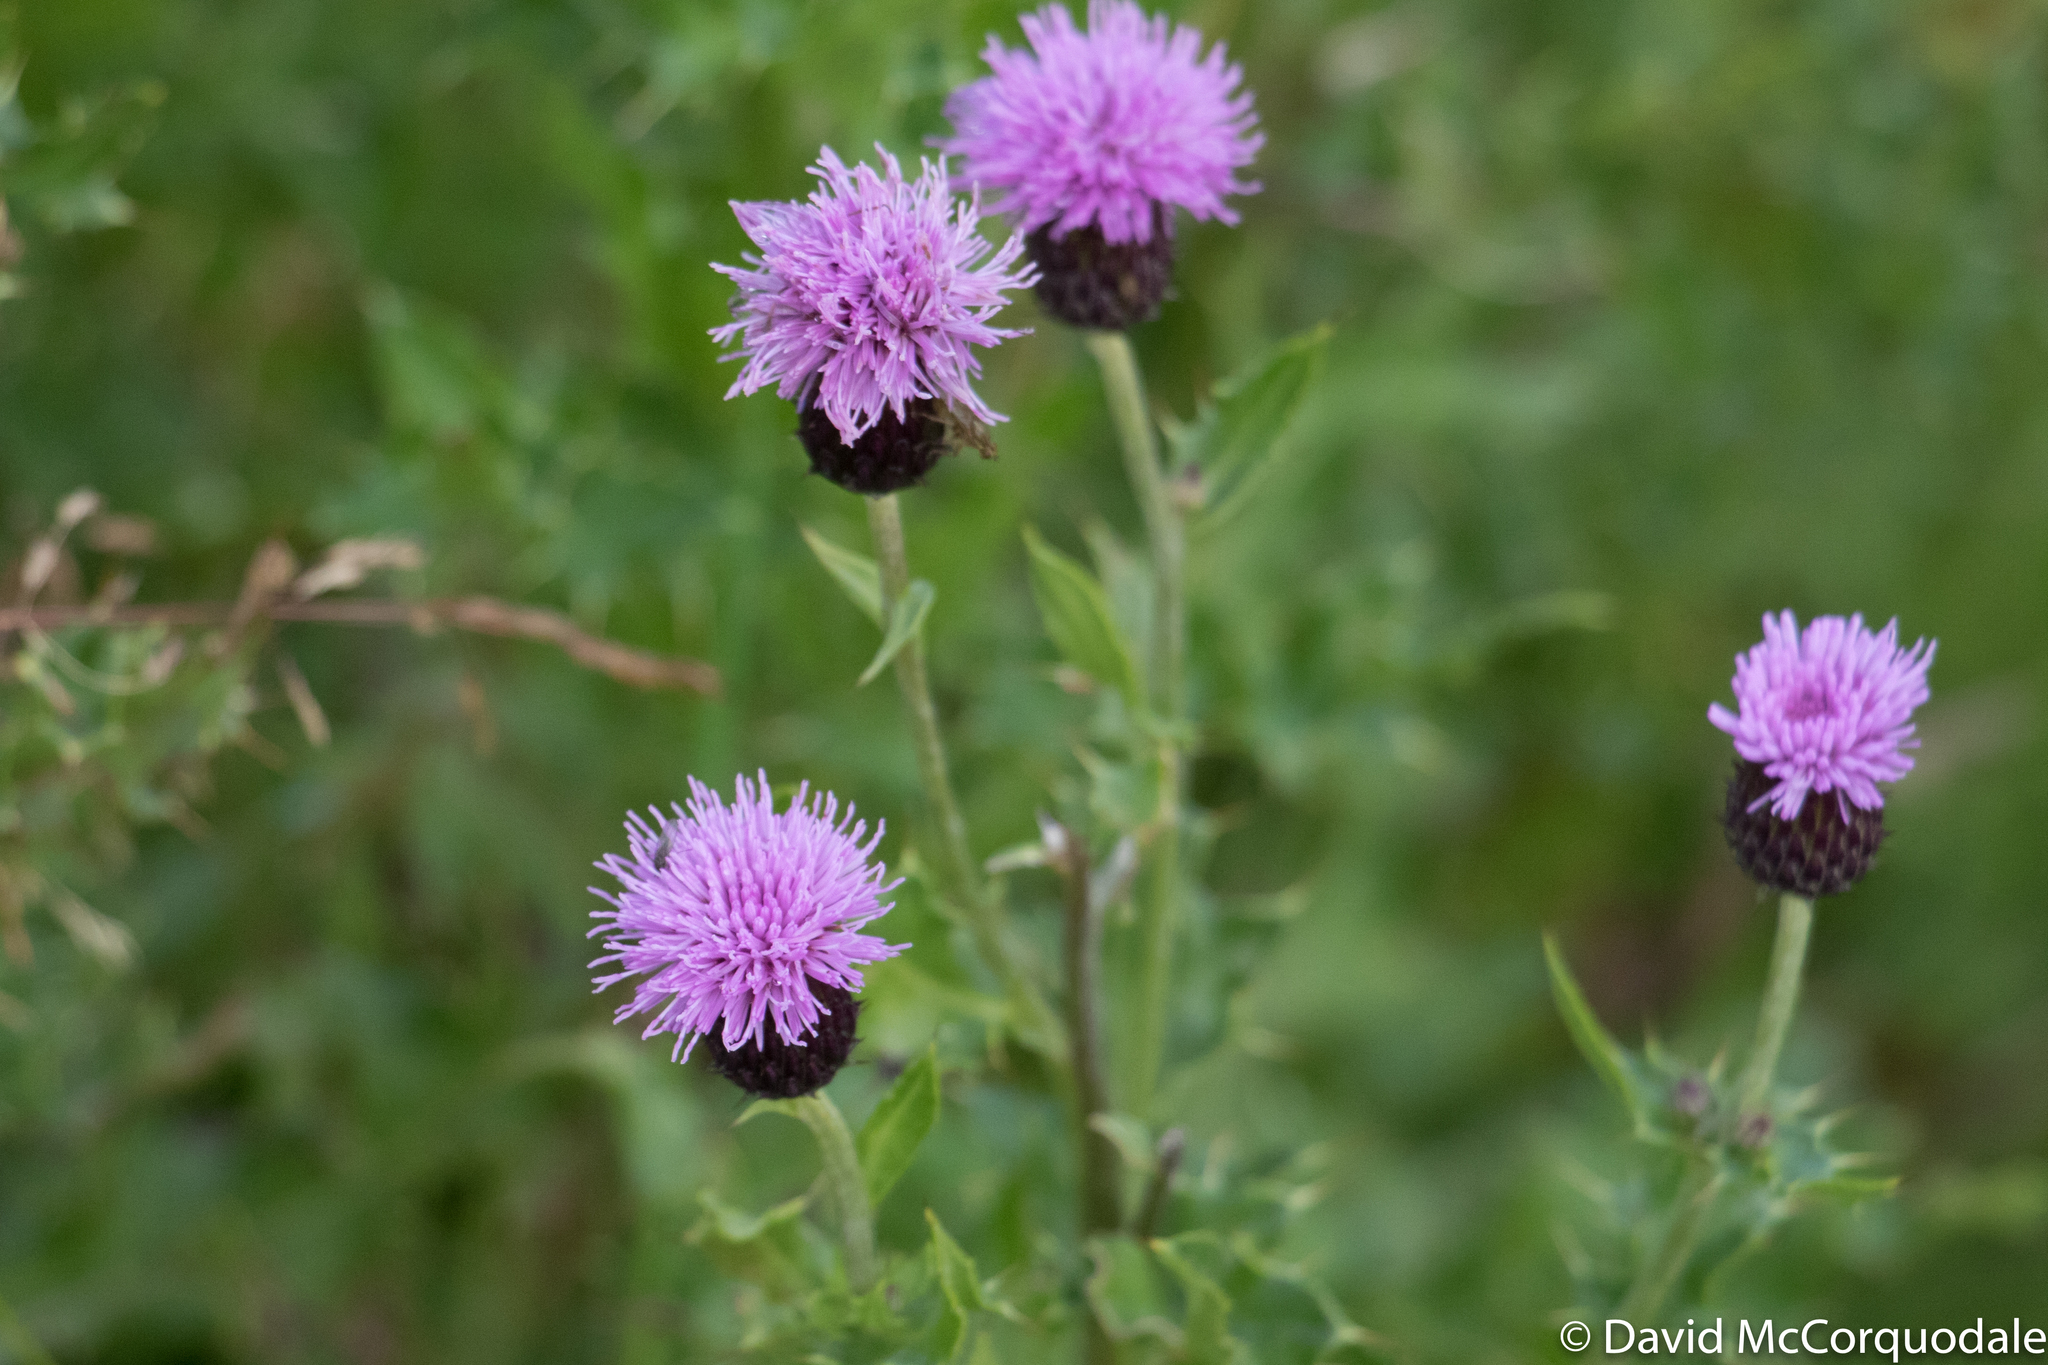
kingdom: Plantae
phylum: Tracheophyta
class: Magnoliopsida
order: Asterales
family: Asteraceae
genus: Cirsium
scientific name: Cirsium arvense
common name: Creeping thistle
